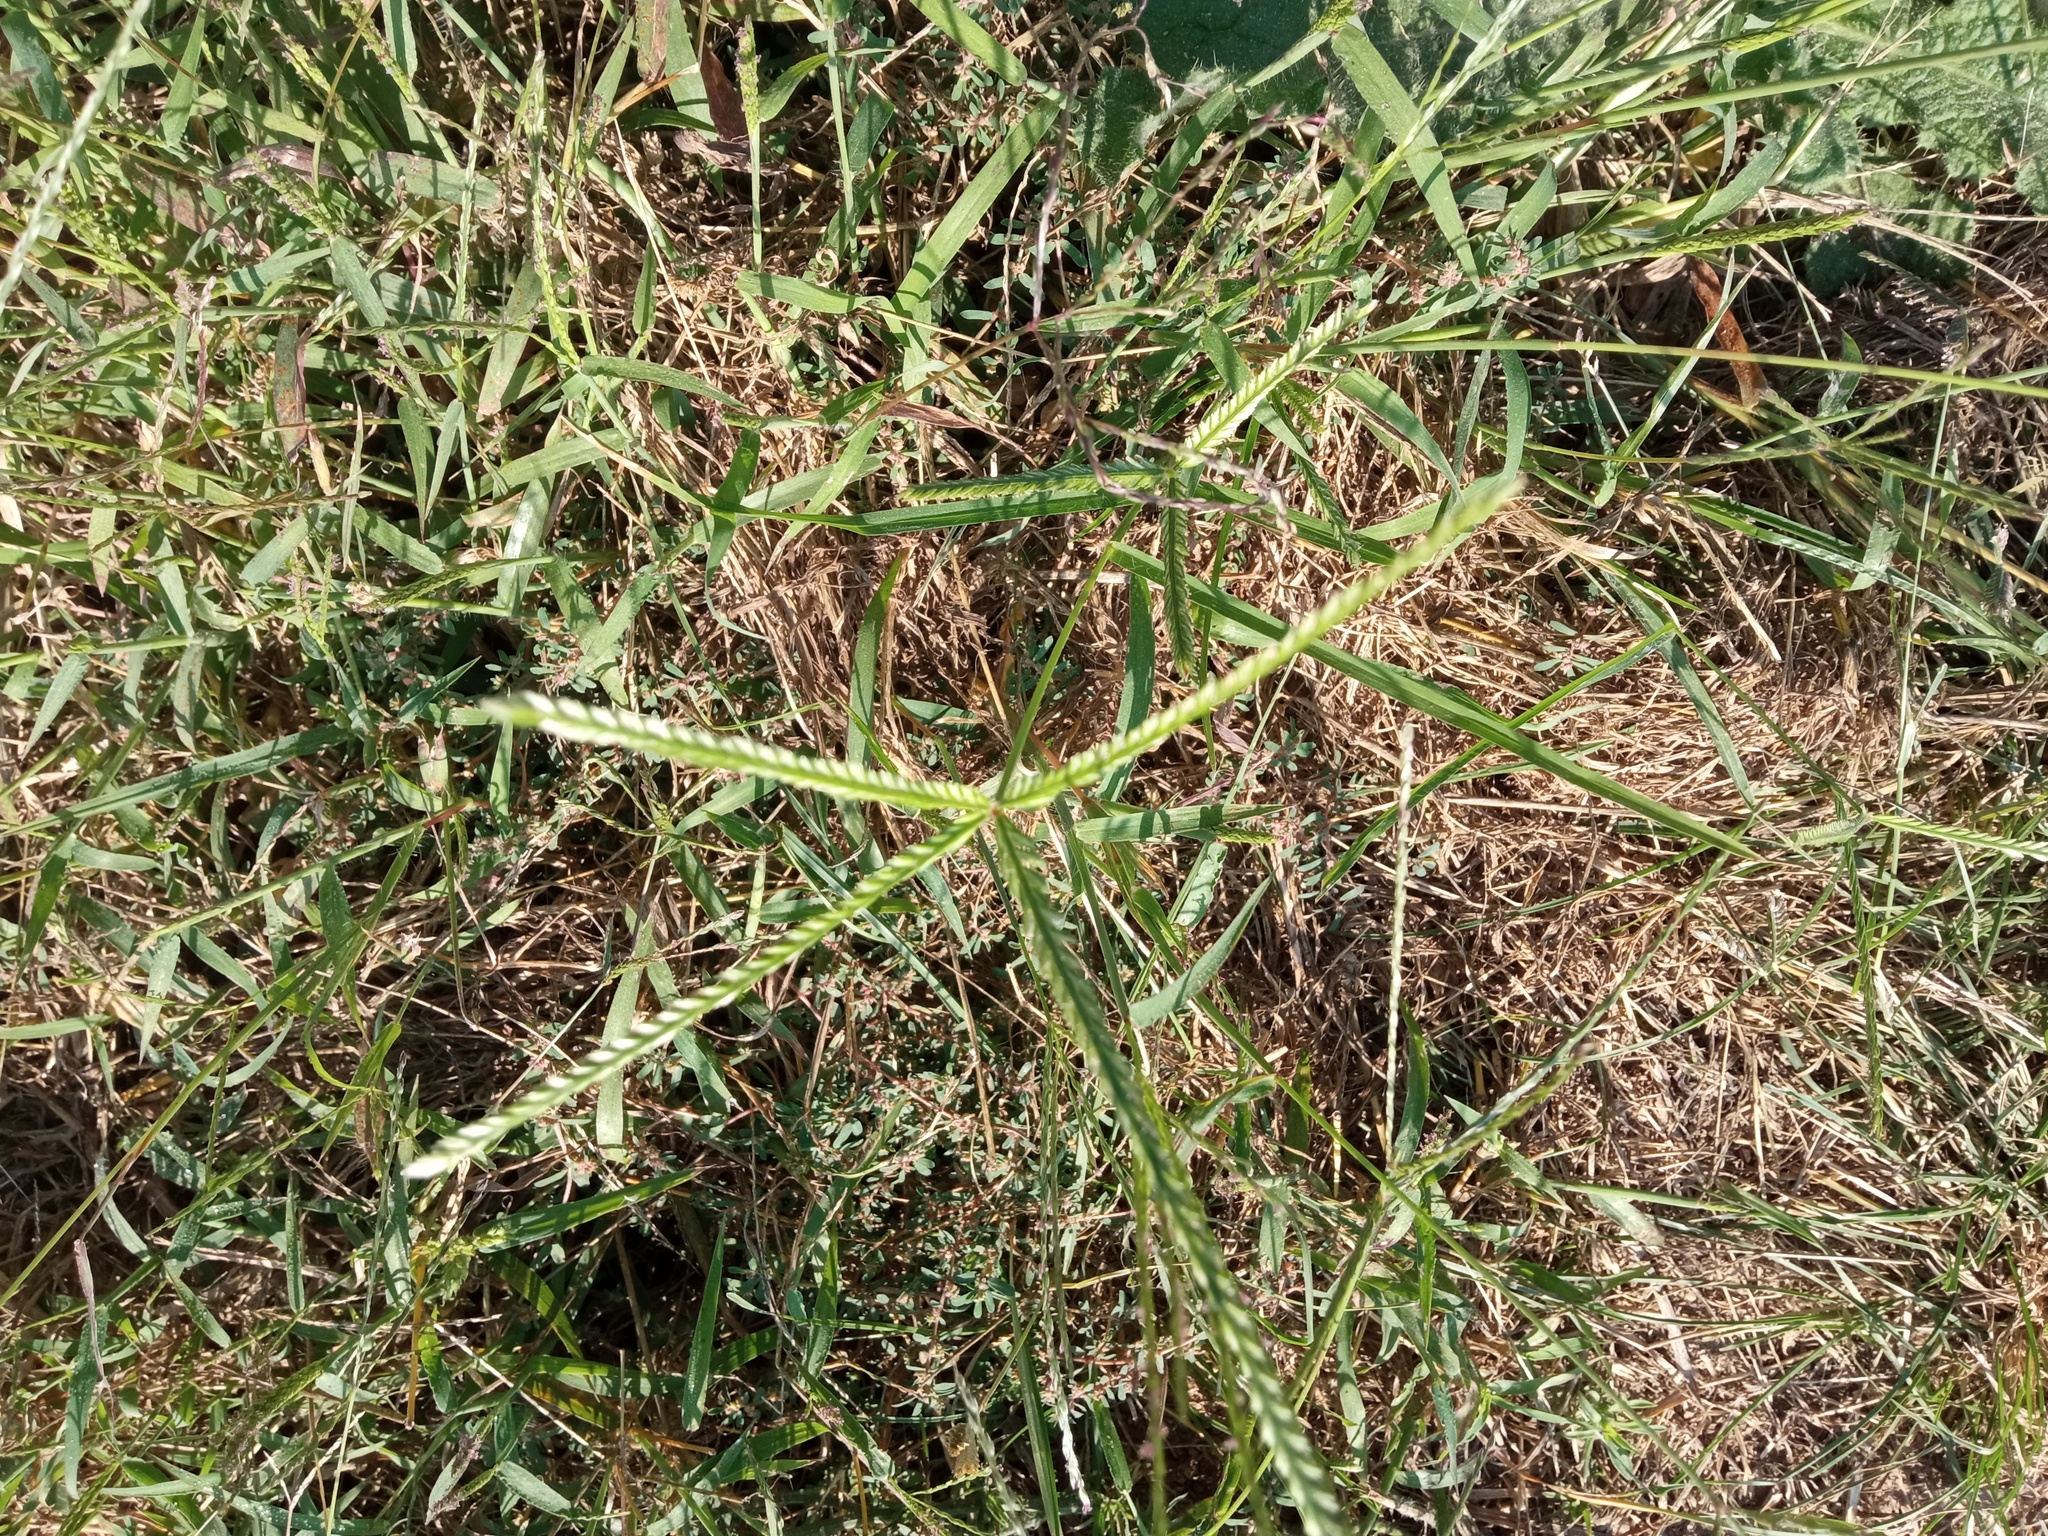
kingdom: Plantae
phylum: Tracheophyta
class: Liliopsida
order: Poales
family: Poaceae
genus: Eleusine
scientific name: Eleusine indica
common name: Yard-grass
